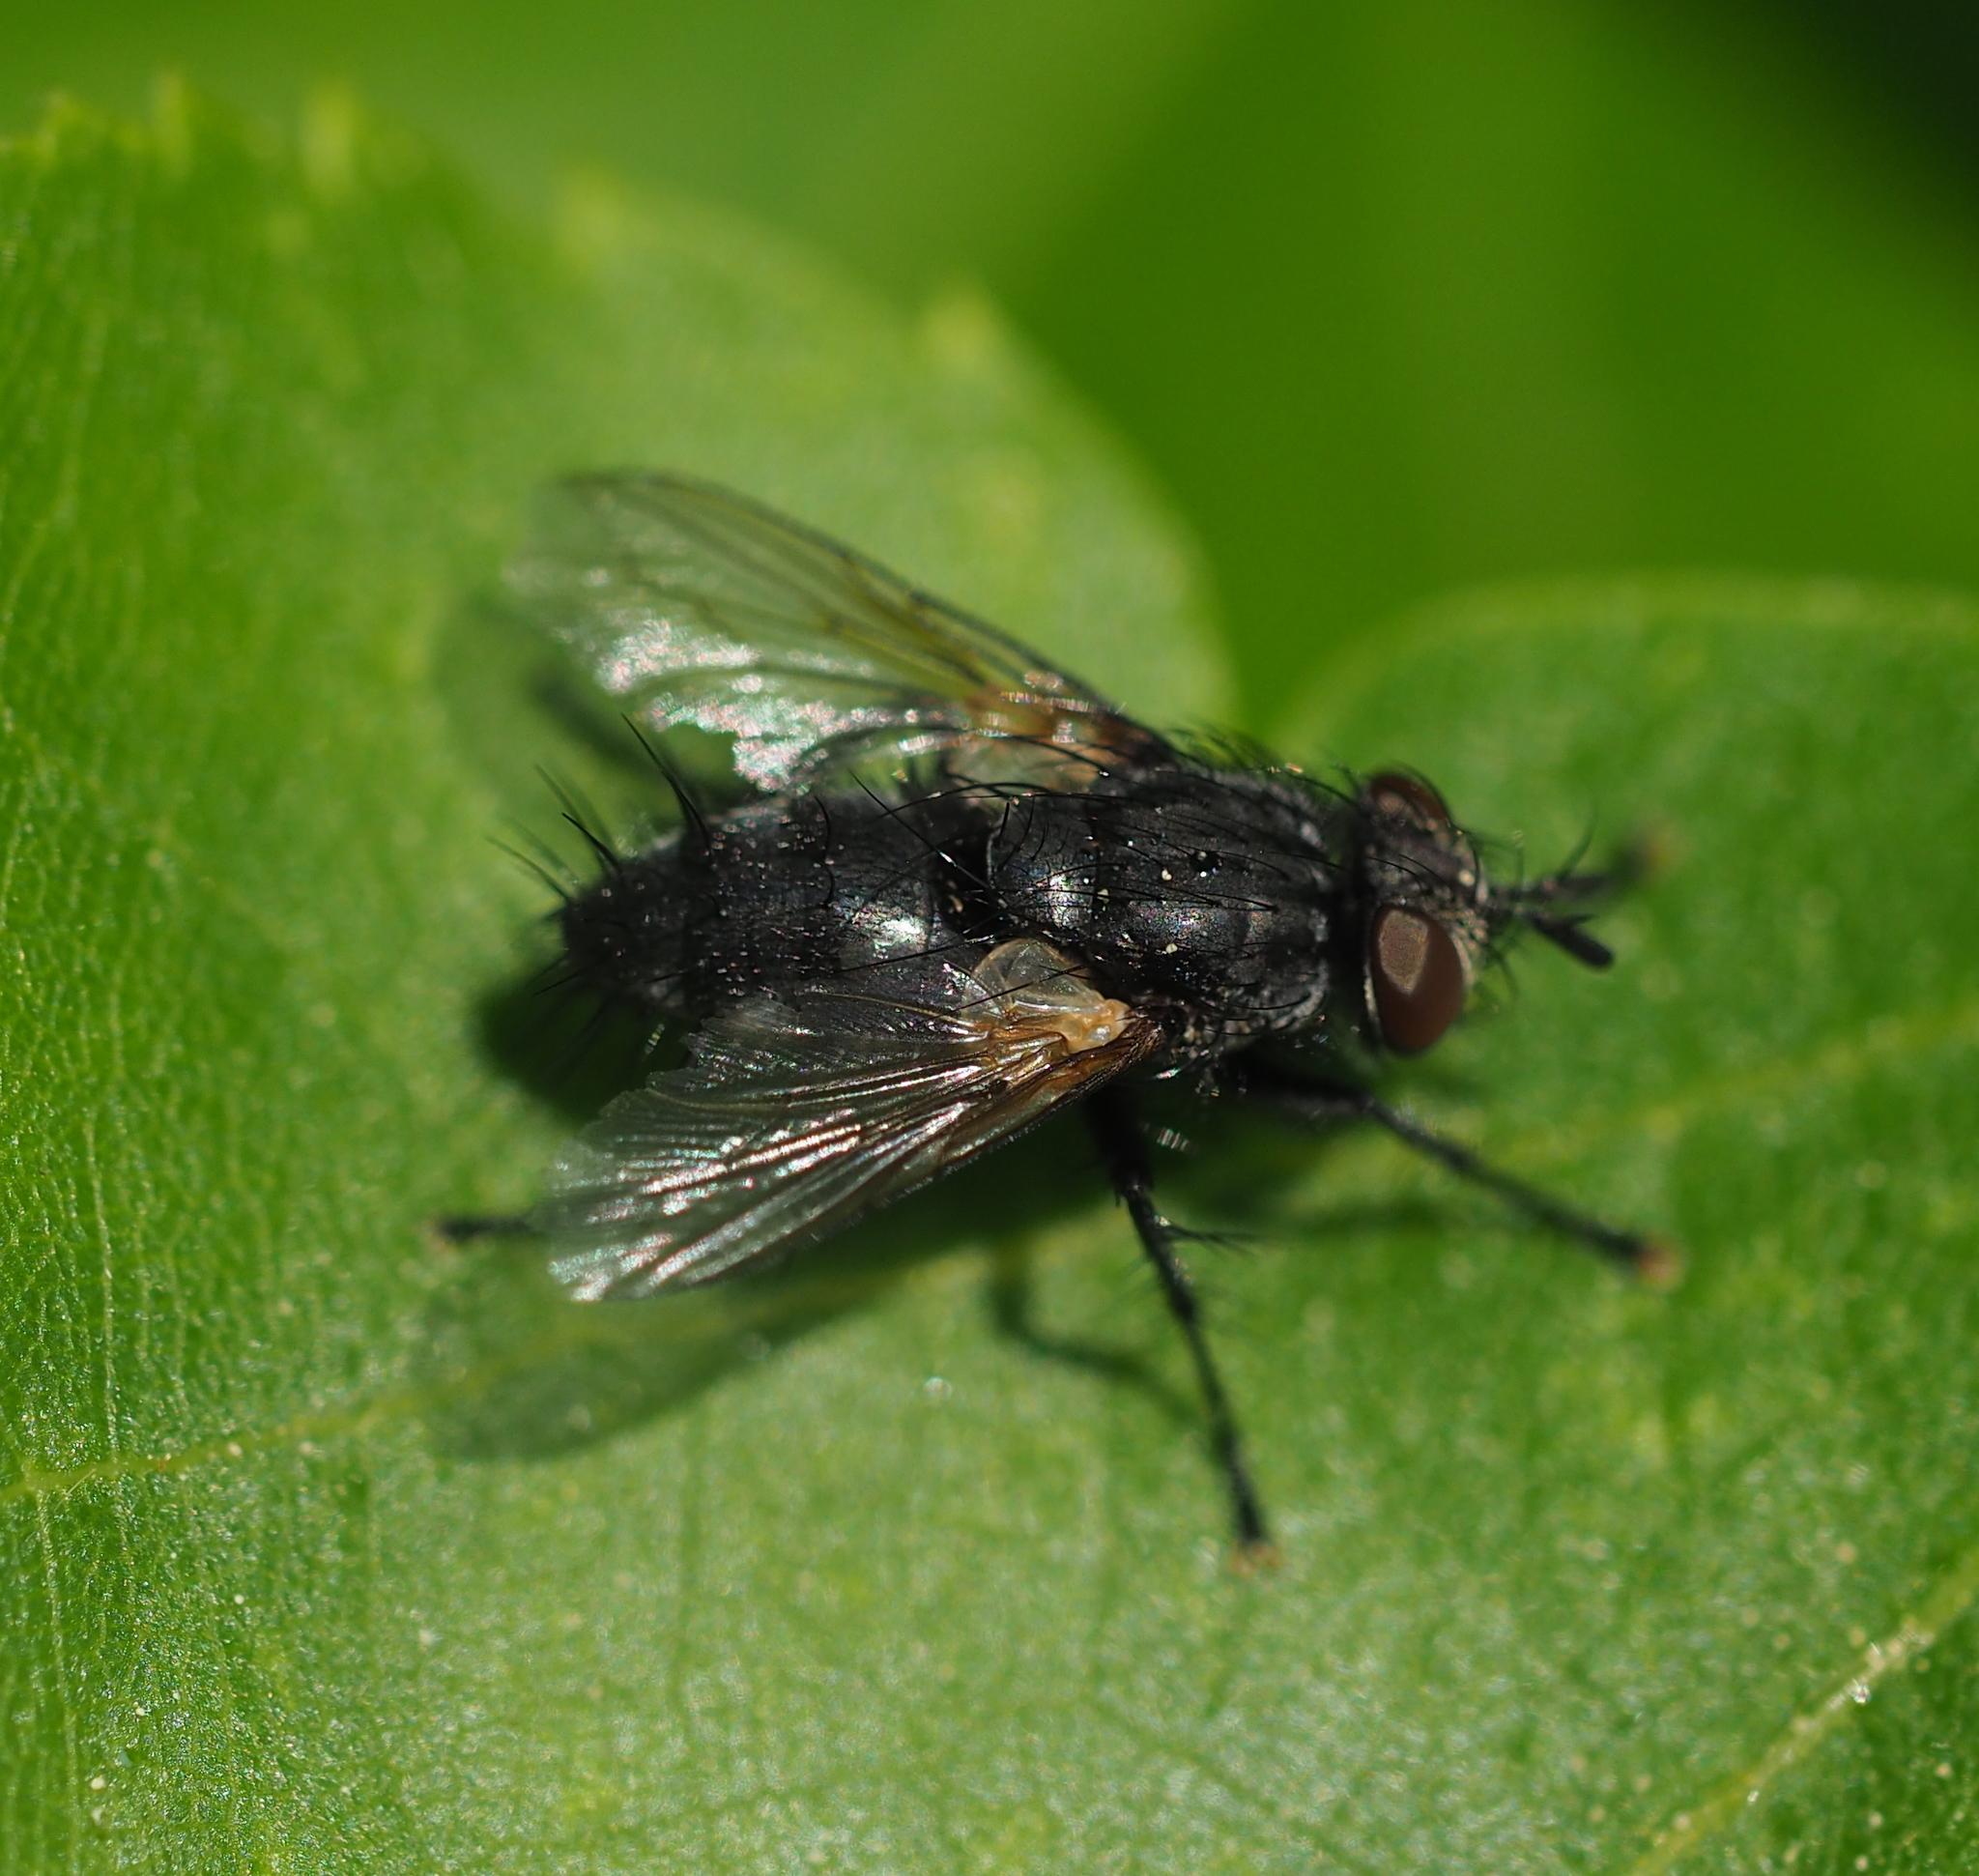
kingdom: Animalia
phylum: Arthropoda
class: Insecta
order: Diptera
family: Tachinidae
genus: Voria
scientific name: Voria ruralis
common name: Parasitic fly
